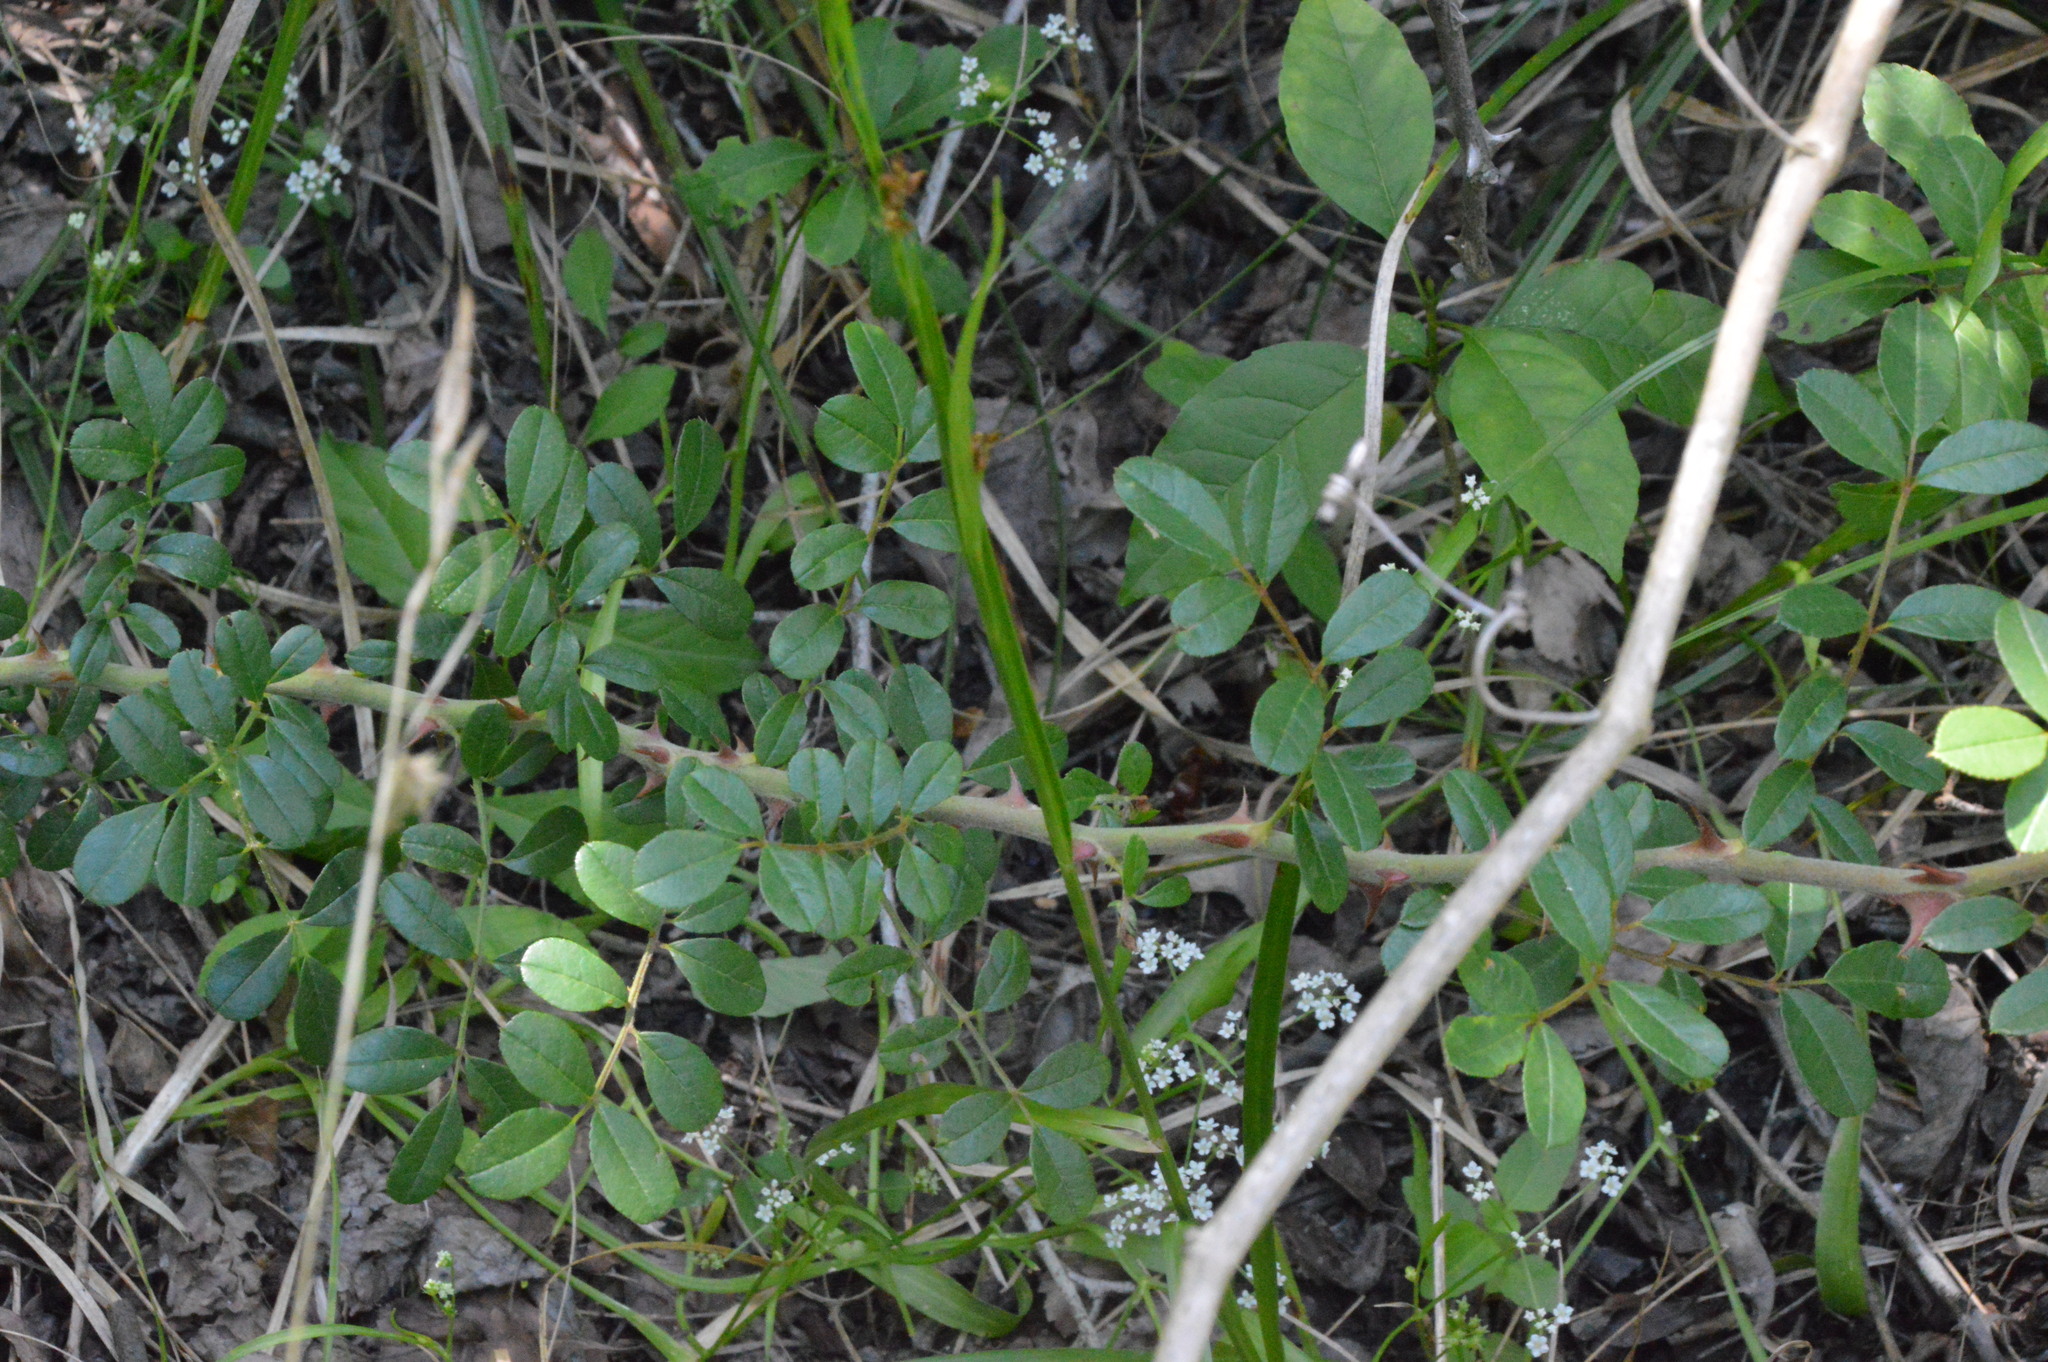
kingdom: Plantae
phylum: Tracheophyta
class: Magnoliopsida
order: Rosales
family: Rosaceae
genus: Rosa
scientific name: Rosa bracteata
